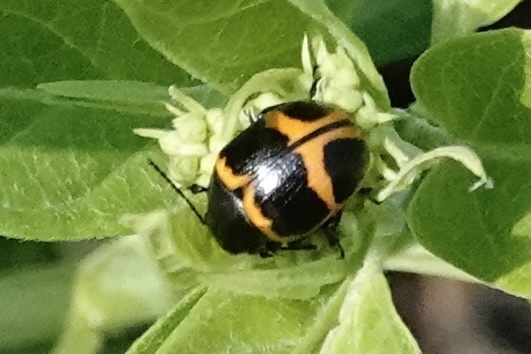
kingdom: Animalia
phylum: Arthropoda
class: Insecta
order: Coleoptera
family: Chrysomelidae
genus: Labidomera
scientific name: Labidomera clivicollis
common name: Swamp milkweed leaf beetle
